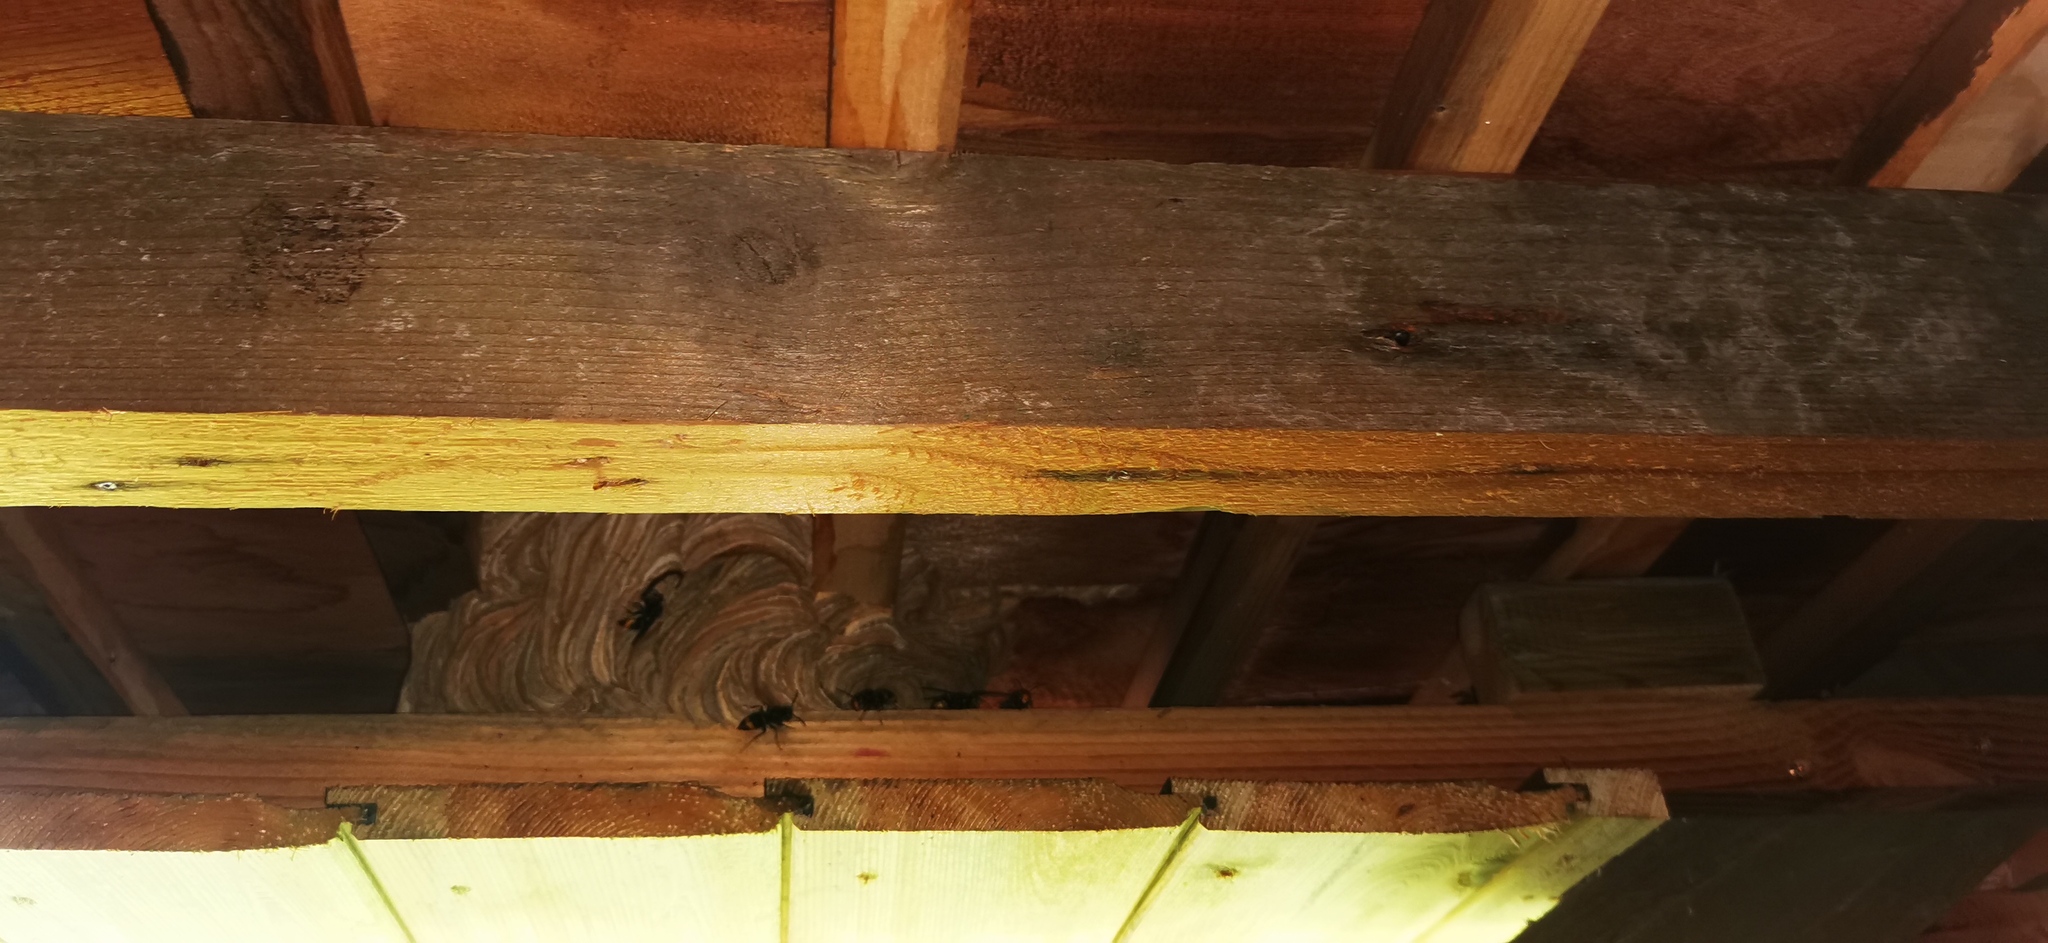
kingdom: Animalia
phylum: Arthropoda
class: Insecta
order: Hymenoptera
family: Vespidae
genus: Vespa
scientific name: Vespa velutina
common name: Asian hornet
